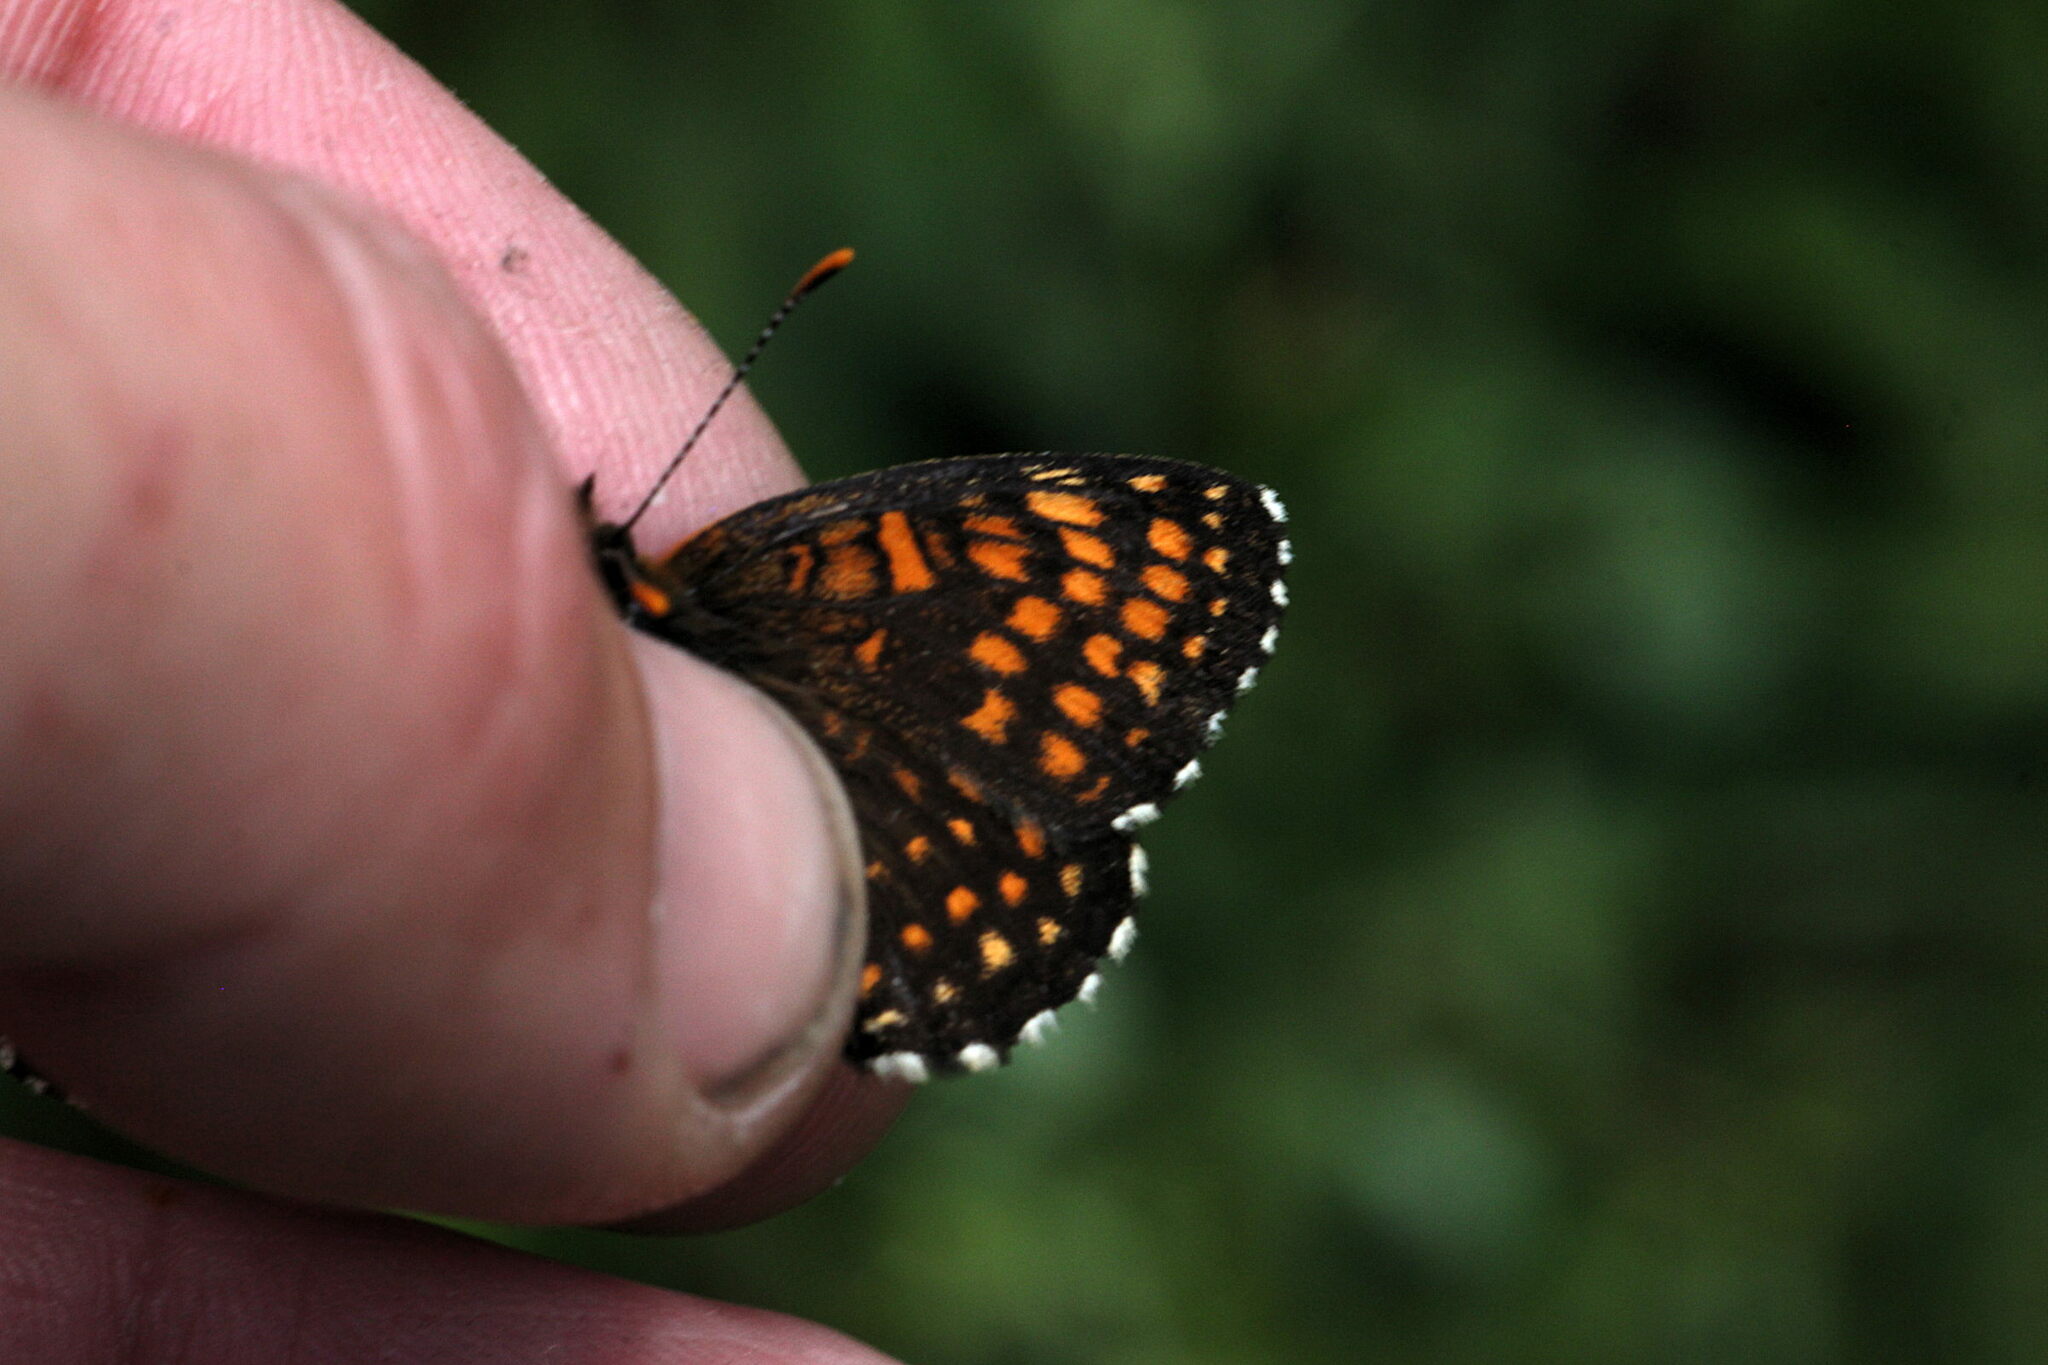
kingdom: Animalia
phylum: Arthropoda
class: Insecta
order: Lepidoptera
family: Nymphalidae
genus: Melitaea
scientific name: Melitaea diamina
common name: False heath fritillary
